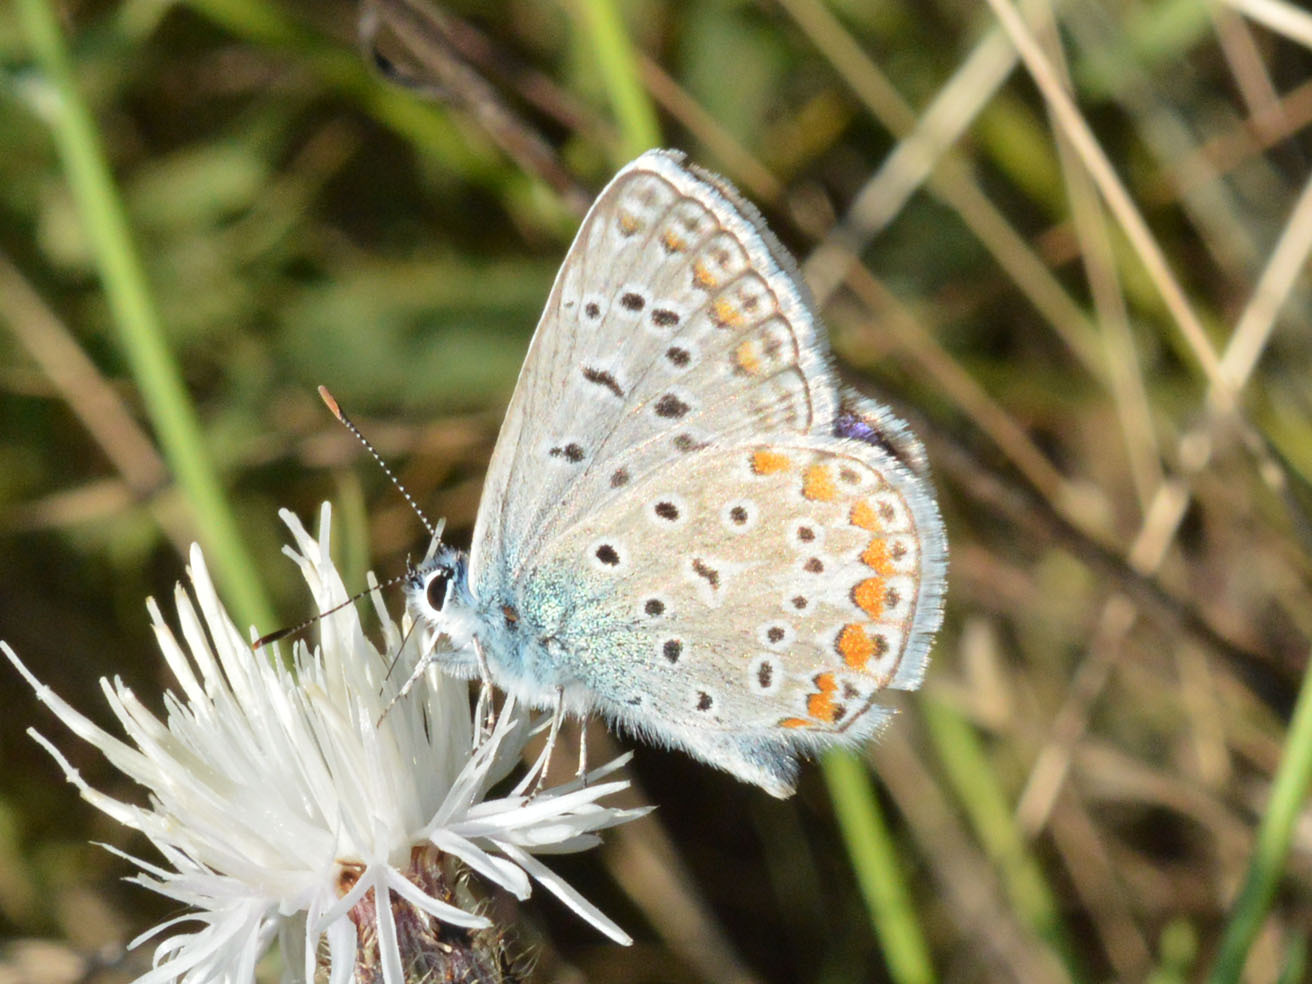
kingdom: Animalia
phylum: Arthropoda
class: Insecta
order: Lepidoptera
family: Lycaenidae
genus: Polyommatus
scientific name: Polyommatus icarus
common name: Common blue
